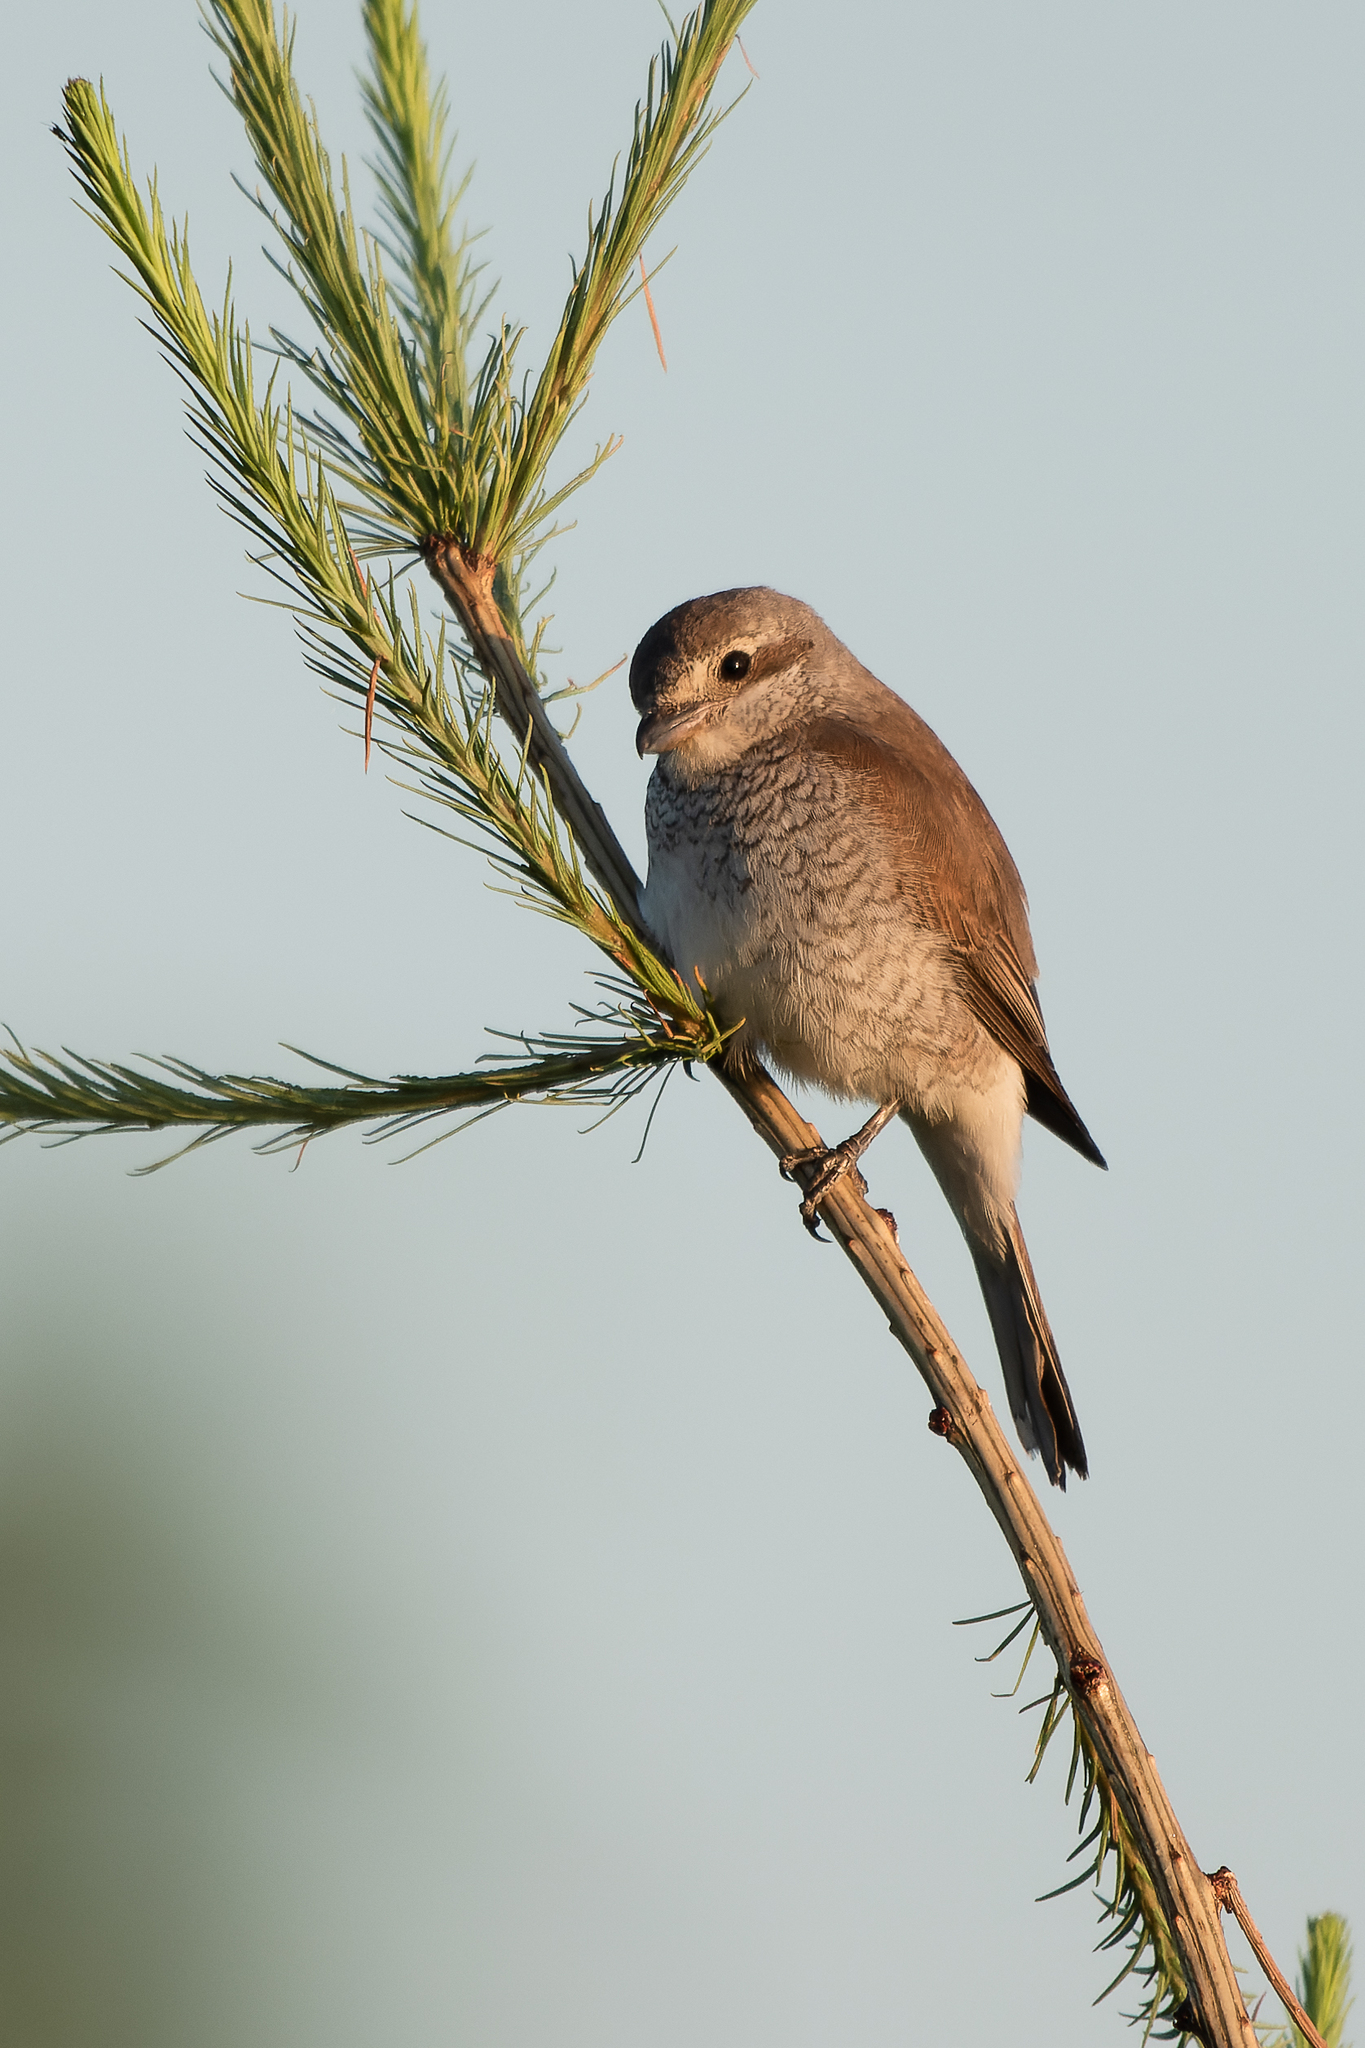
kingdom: Animalia
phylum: Chordata
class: Aves
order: Passeriformes
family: Laniidae
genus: Lanius
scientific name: Lanius collurio
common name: Red-backed shrike
